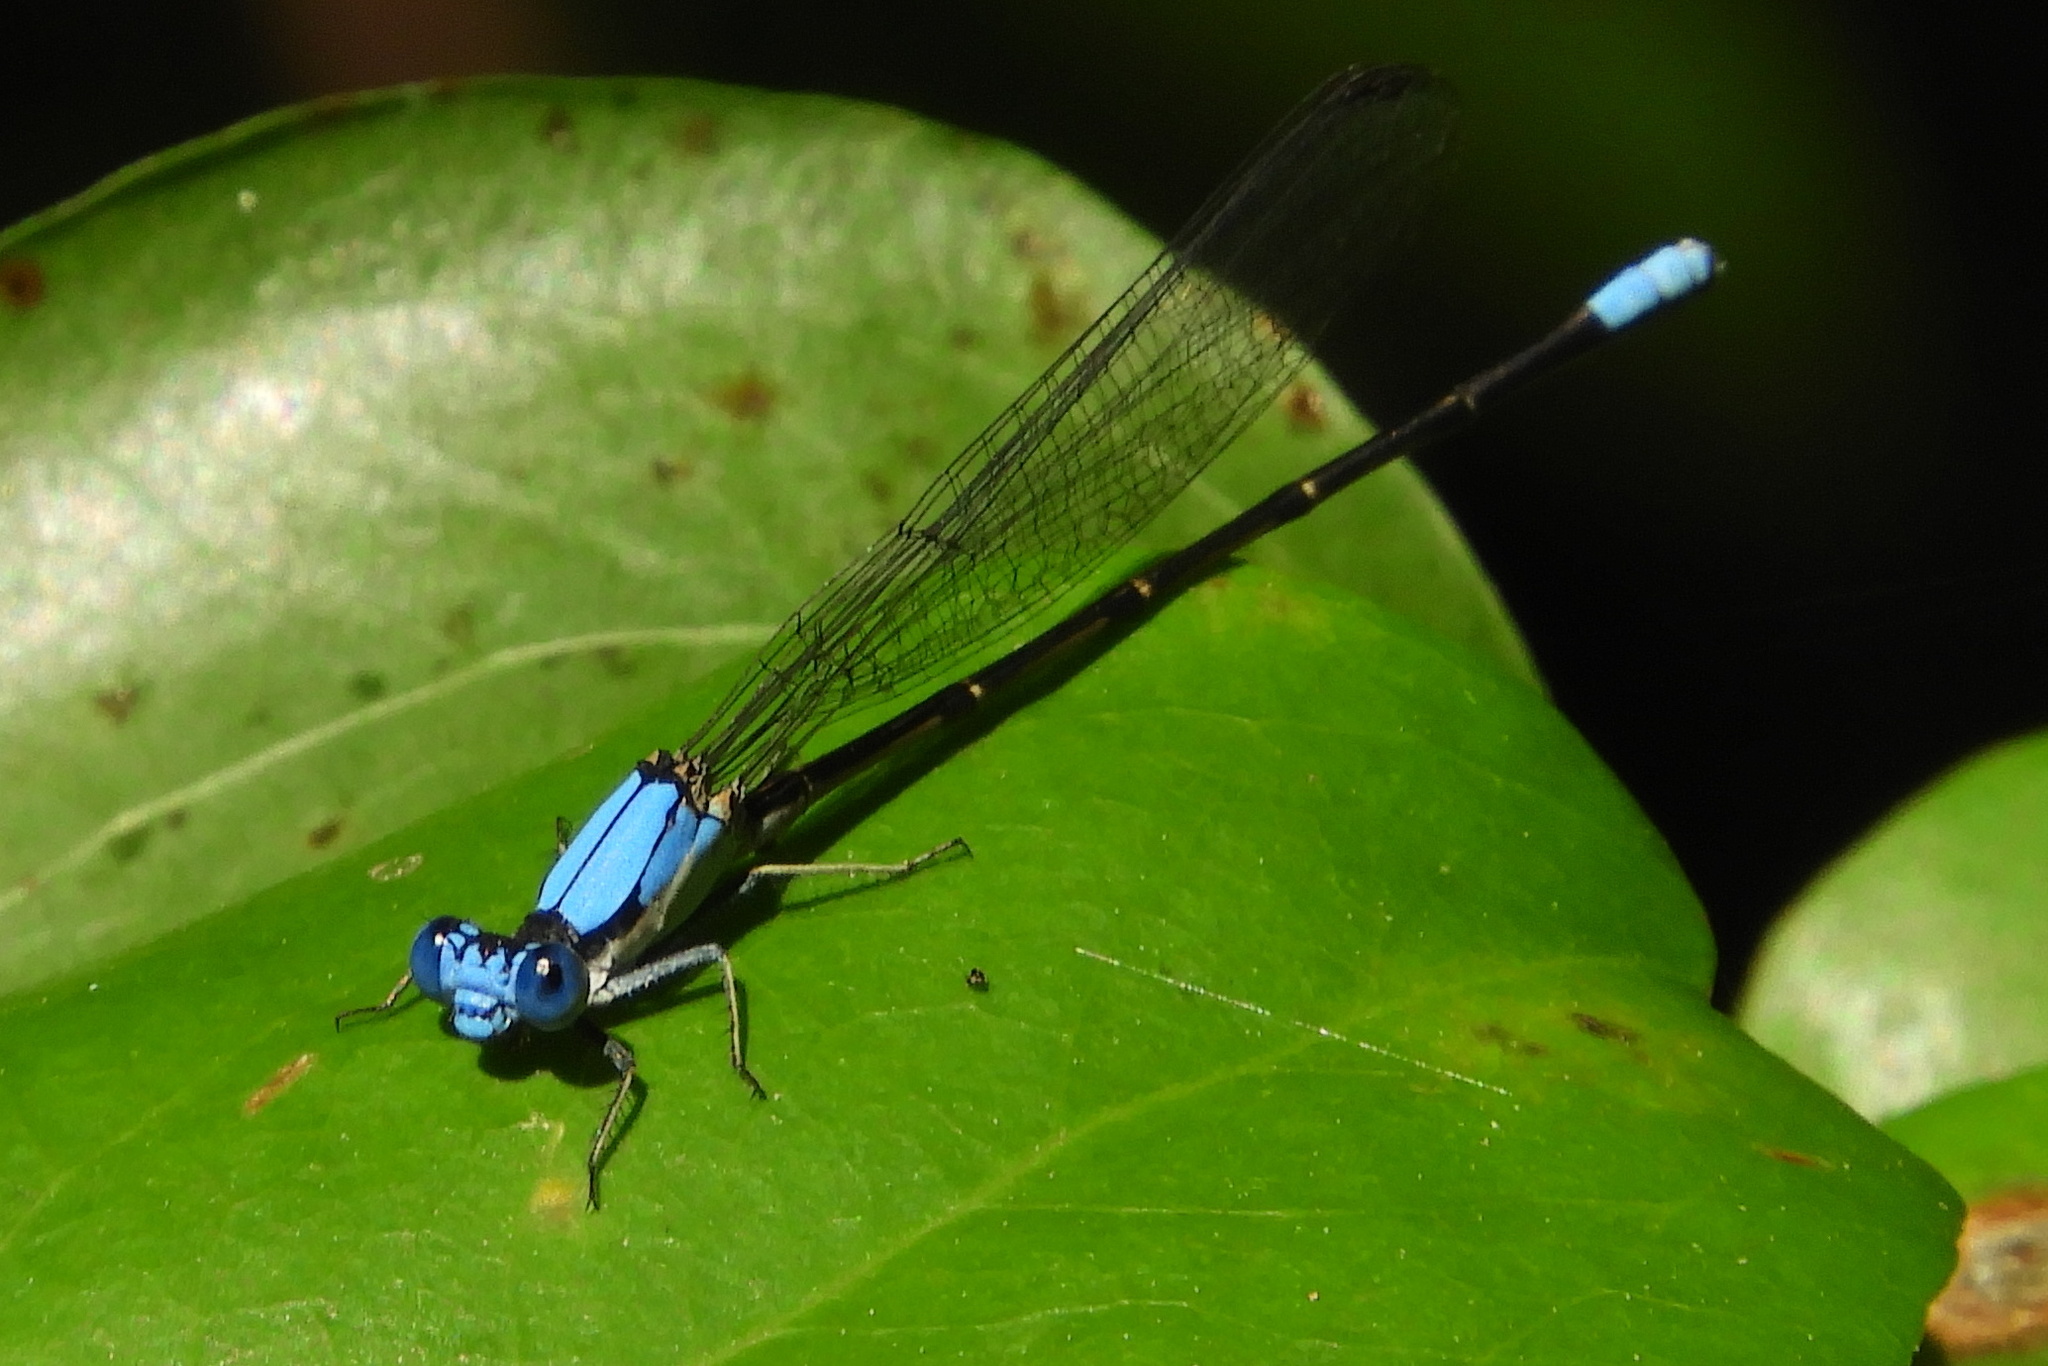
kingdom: Animalia
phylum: Arthropoda
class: Insecta
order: Odonata
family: Coenagrionidae
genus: Argia
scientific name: Argia apicalis
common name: Blue-fronted dancer
